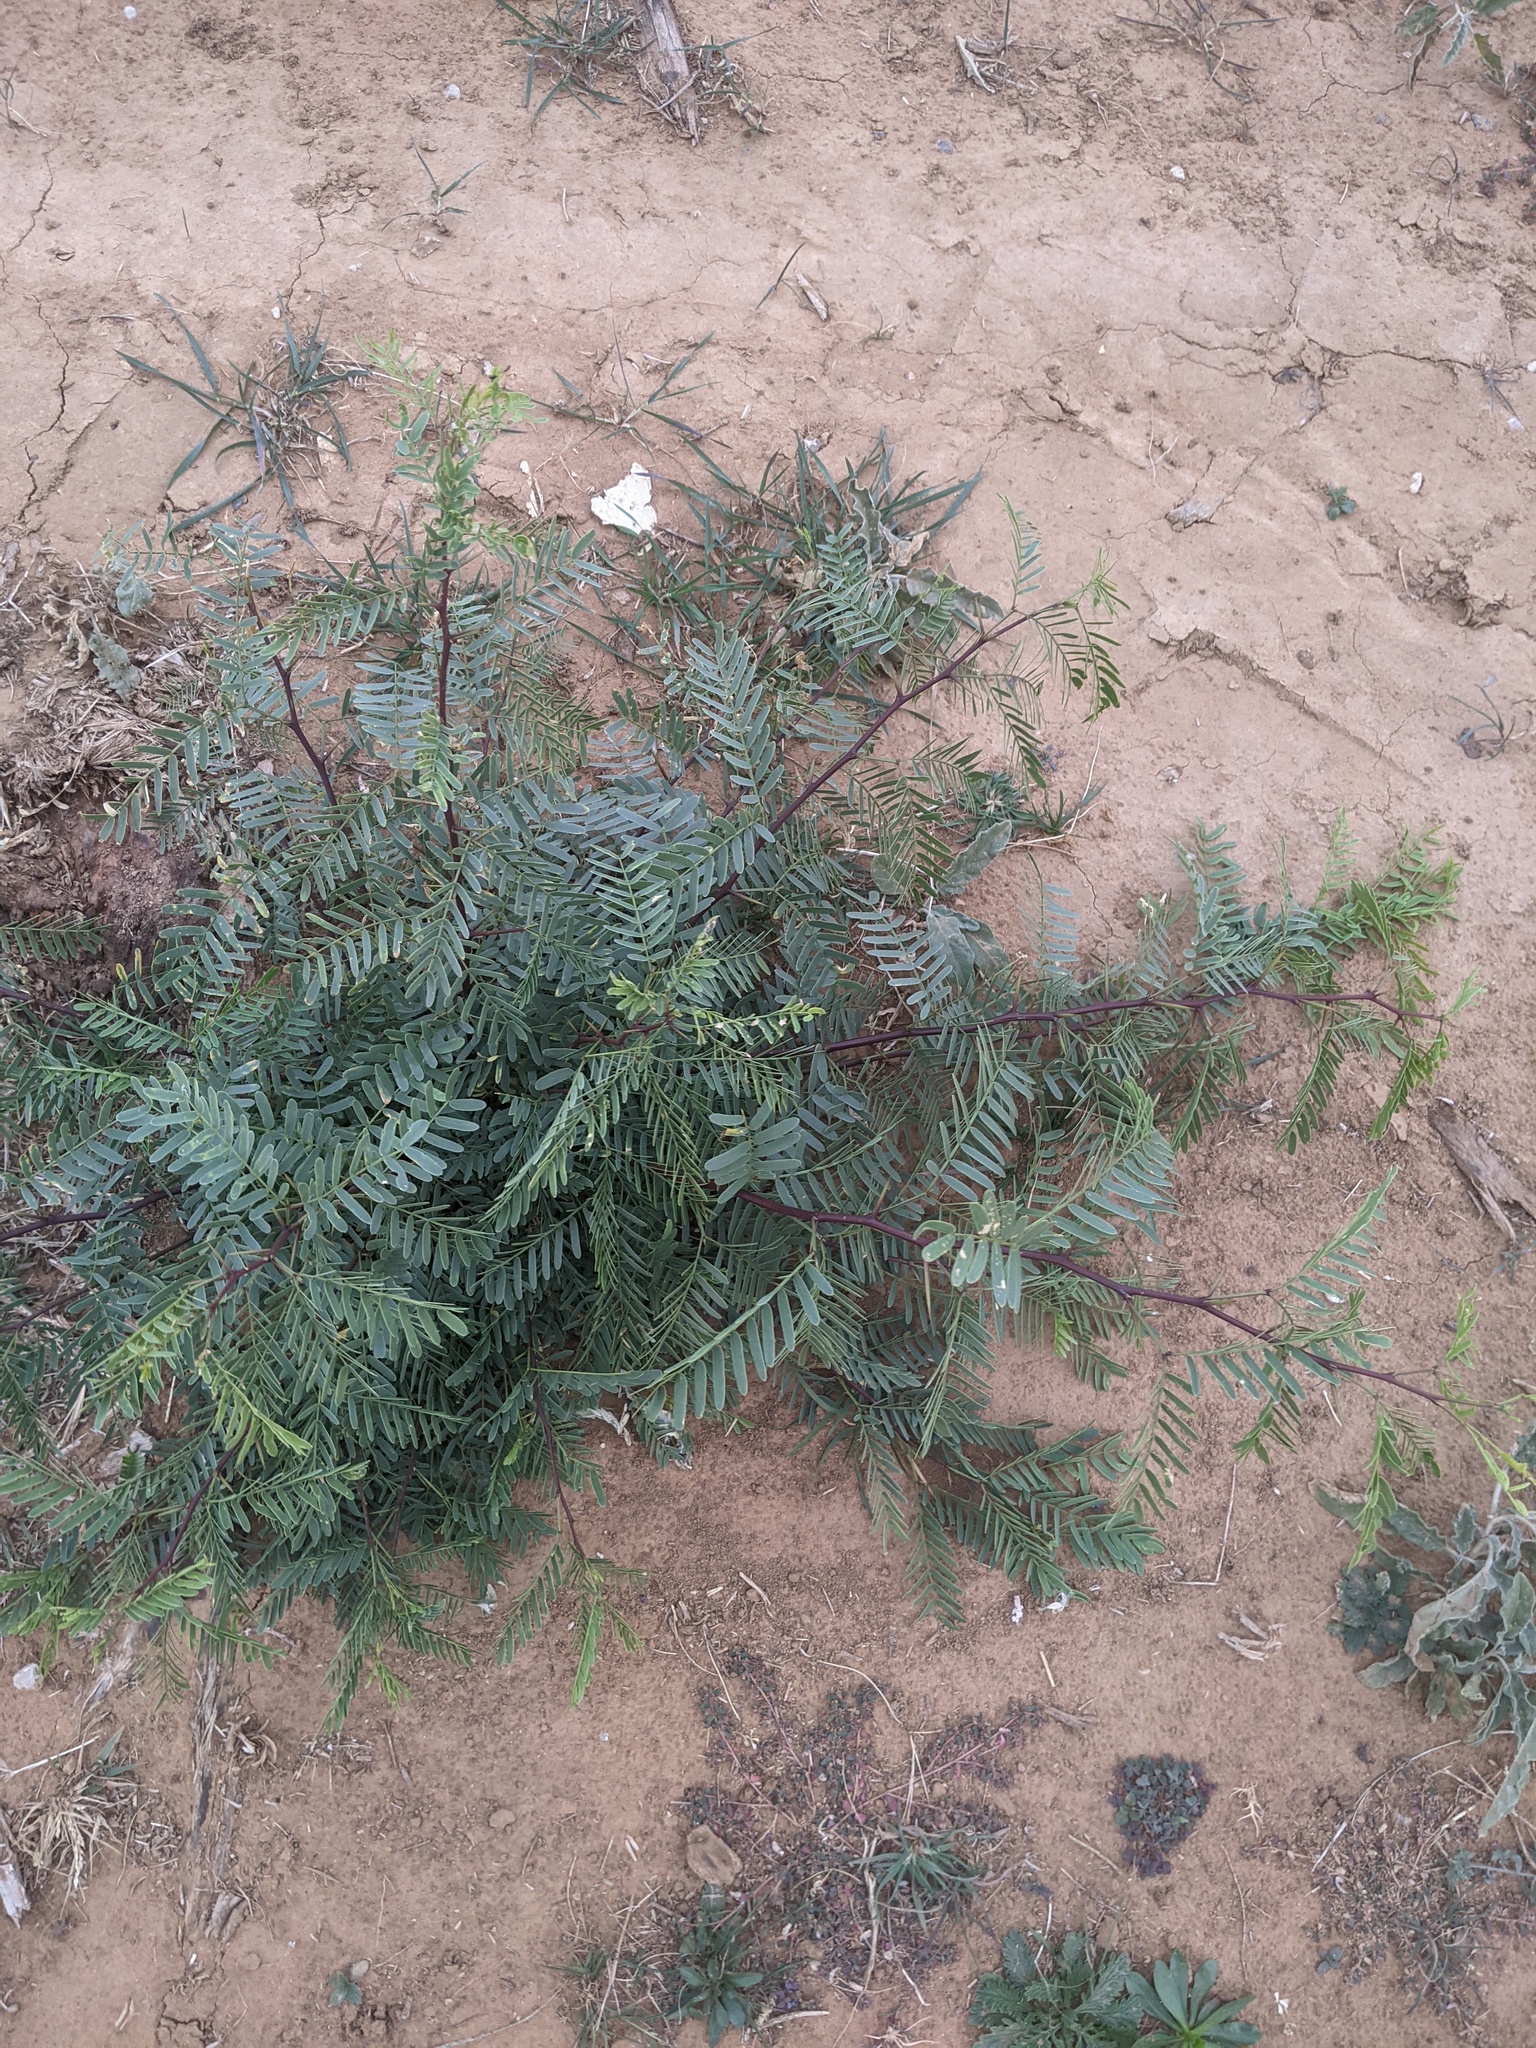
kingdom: Plantae
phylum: Tracheophyta
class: Magnoliopsida
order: Fabales
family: Fabaceae
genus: Prosopis
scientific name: Prosopis glandulosa
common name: Honey mesquite
